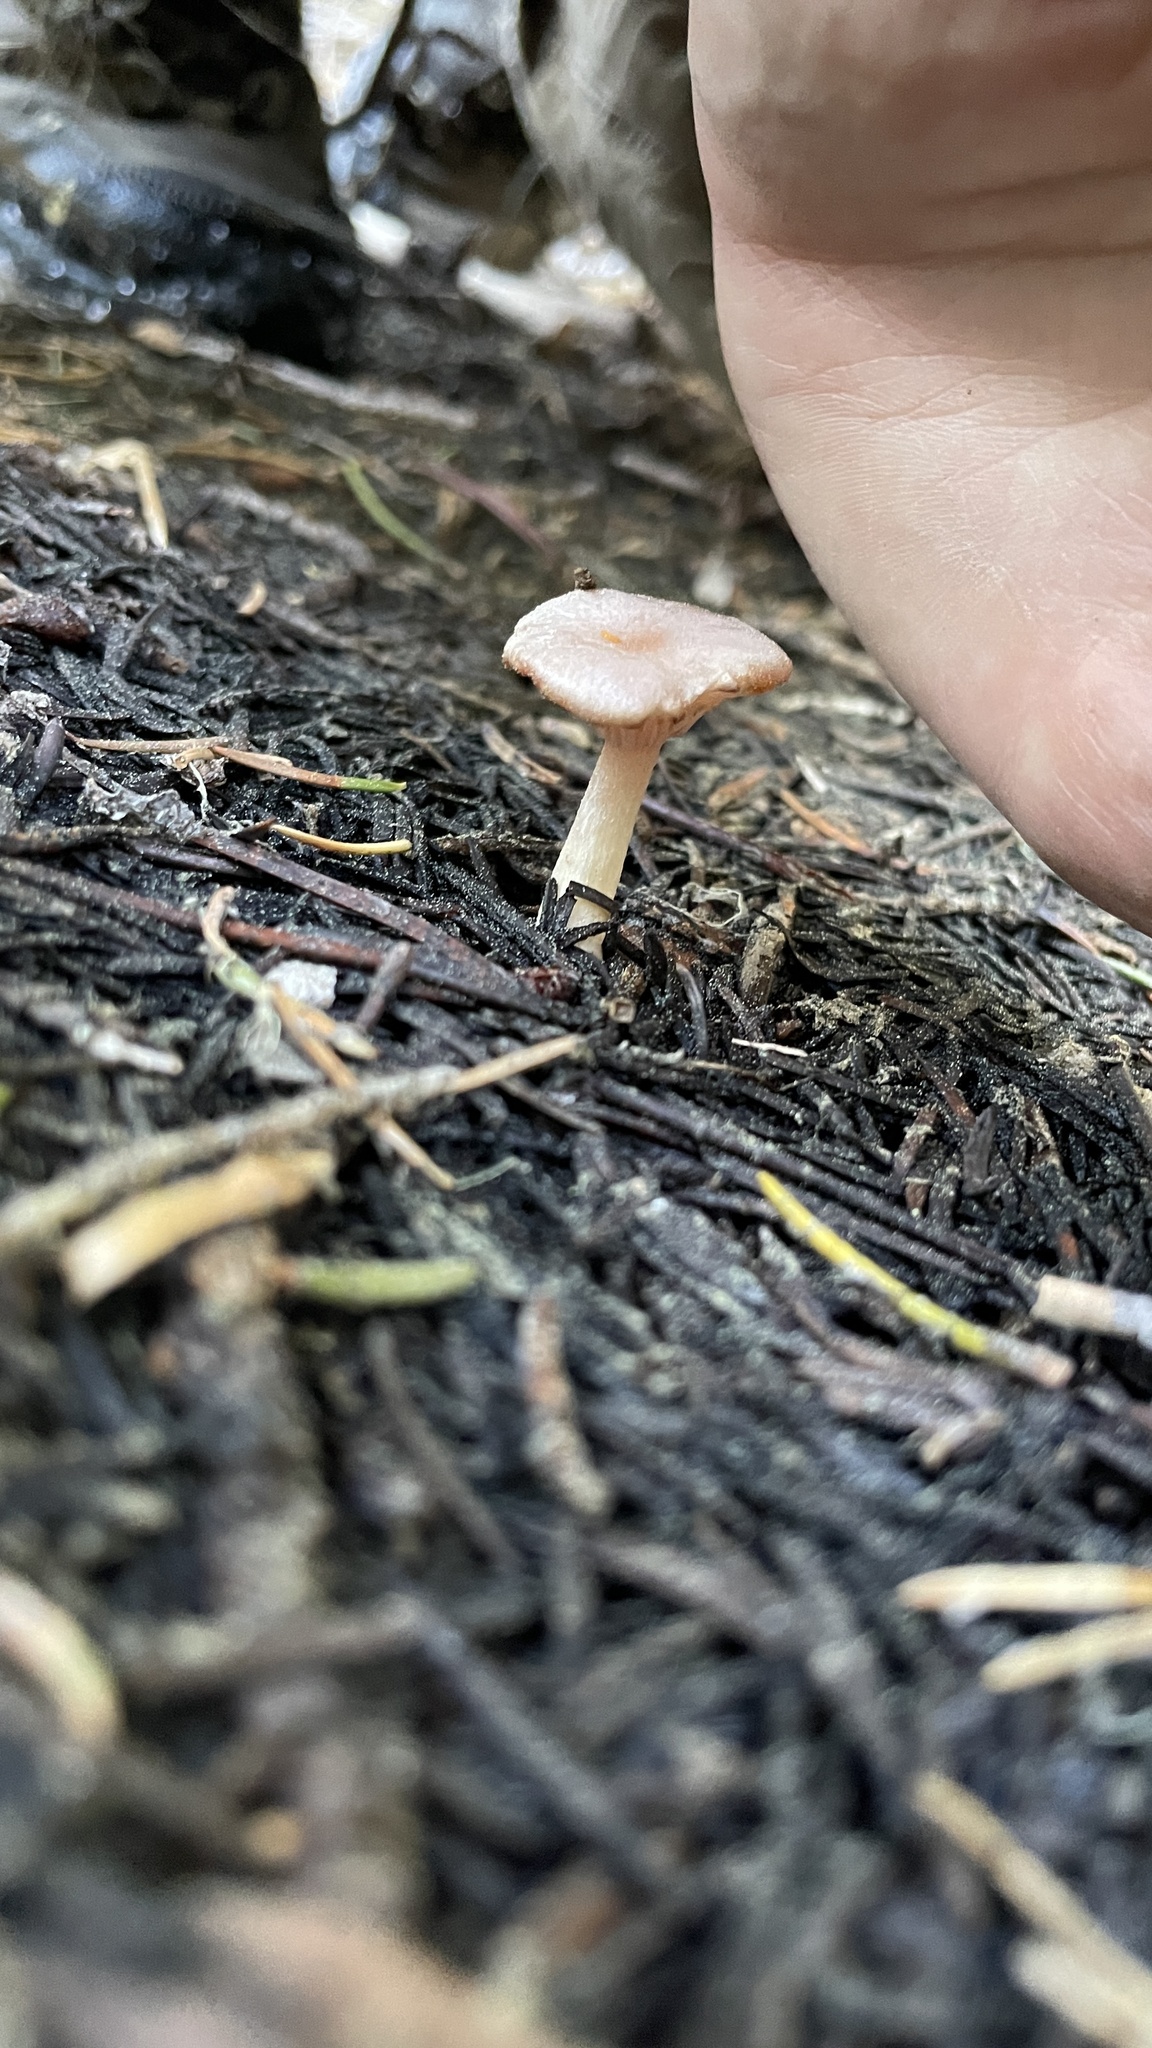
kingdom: Fungi
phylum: Basidiomycota
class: Agaricomycetes
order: Agaricales
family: Hygrophoraceae
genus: Hygrophorus
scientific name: Hygrophorus goetzei
